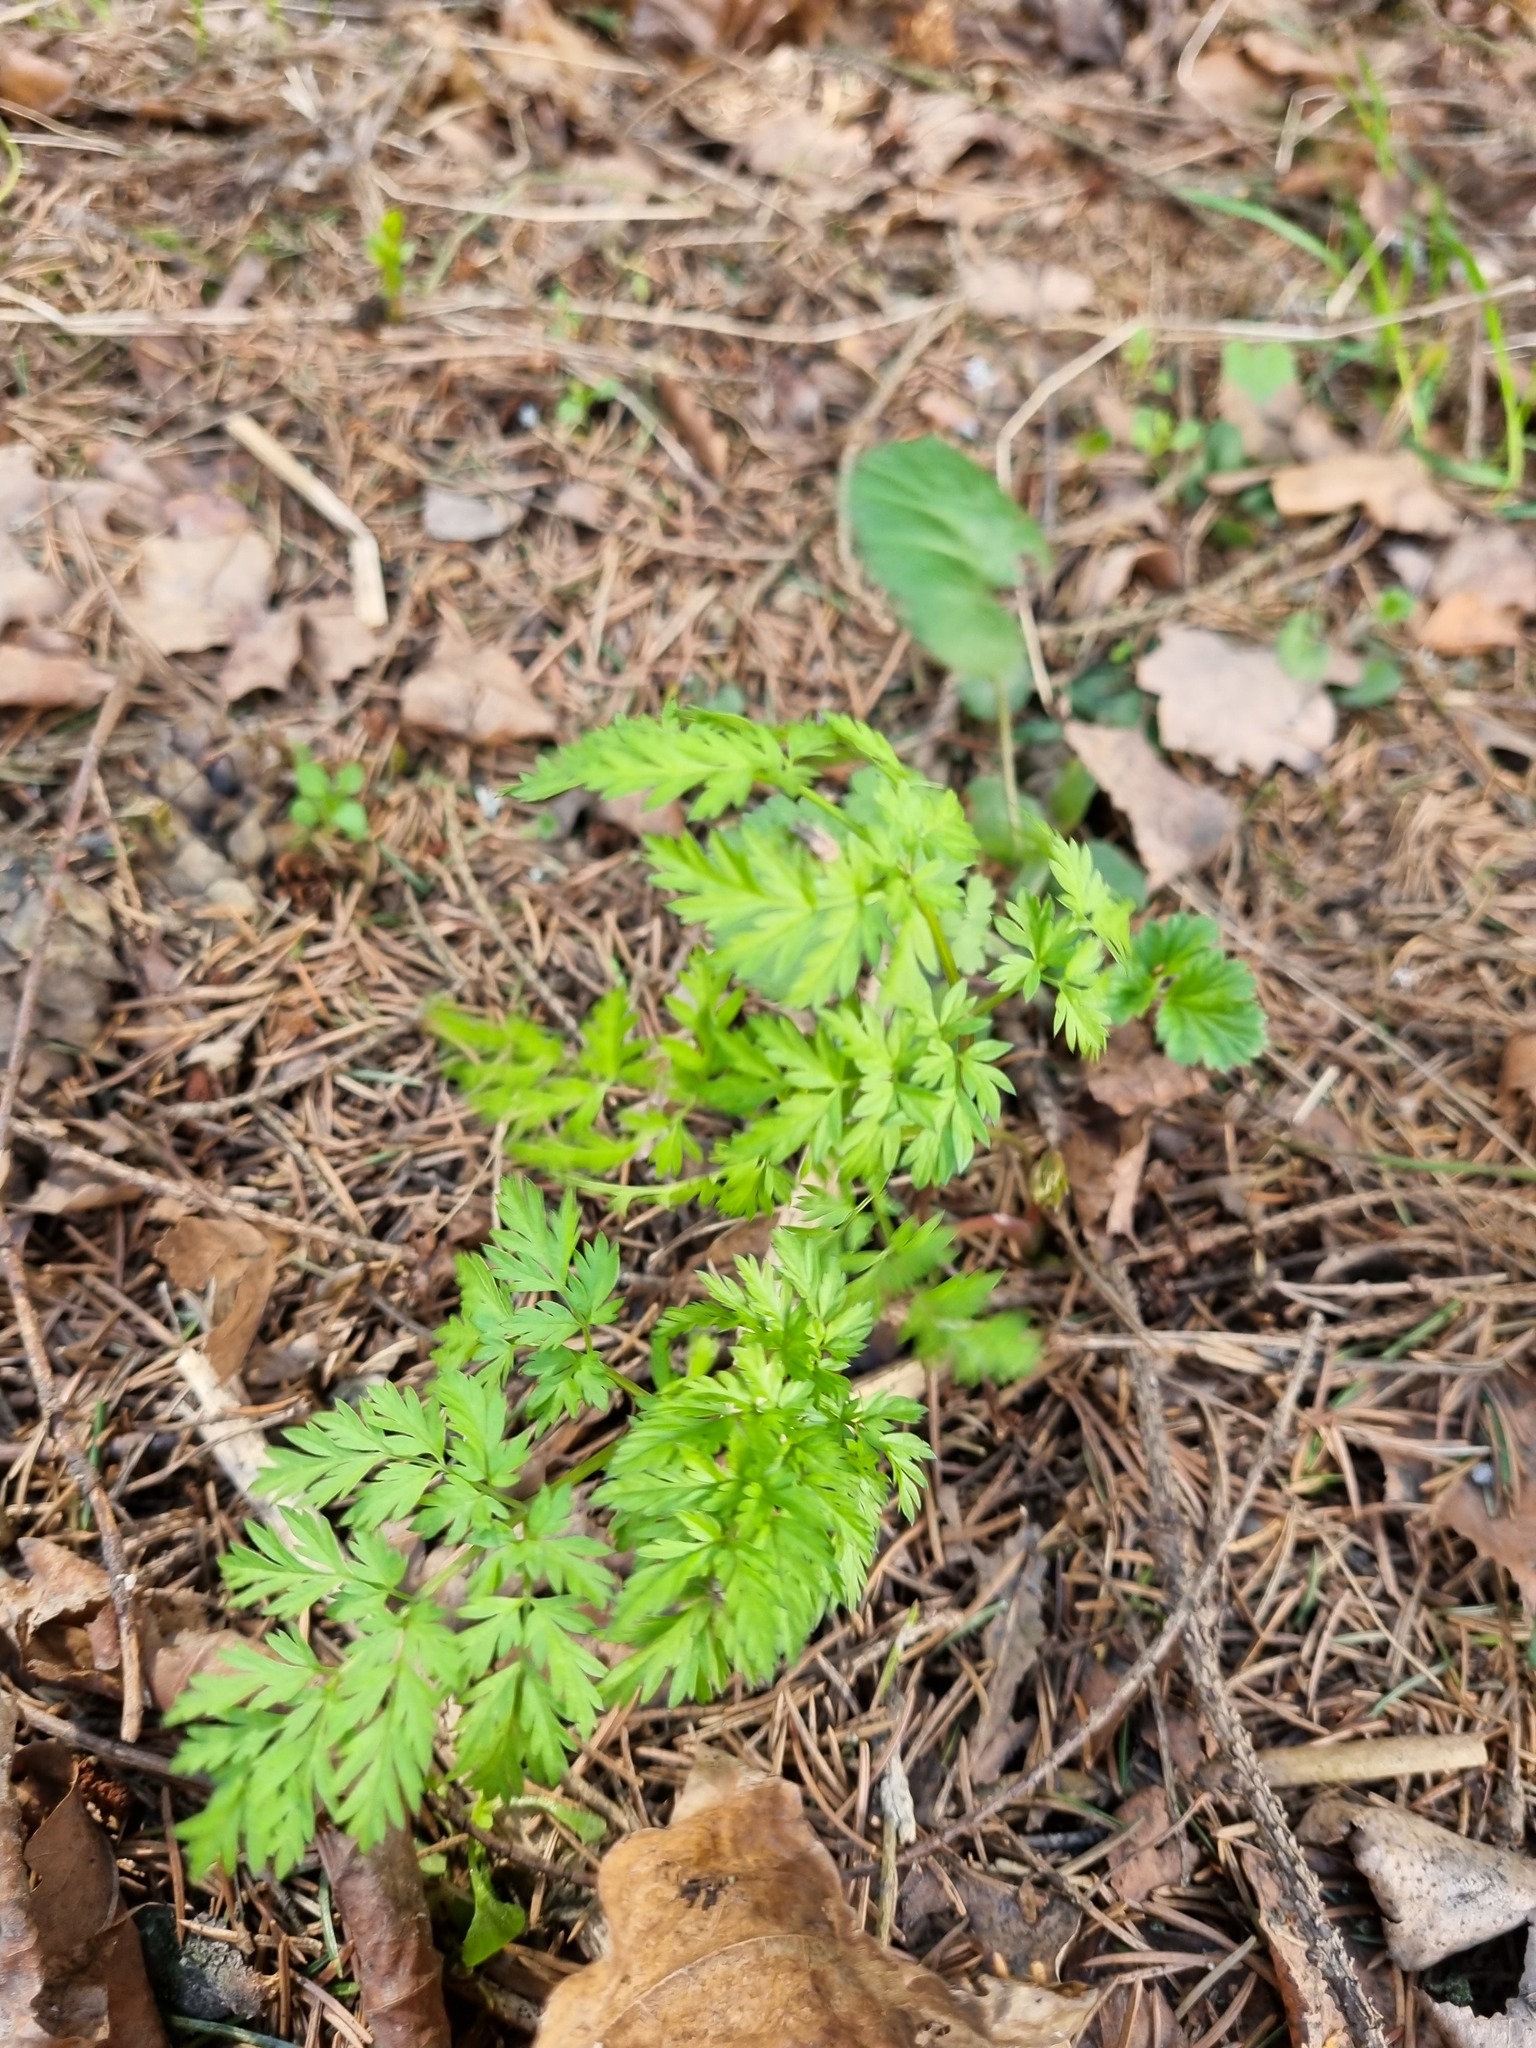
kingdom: Plantae
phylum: Tracheophyta
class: Magnoliopsida
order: Apiales
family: Apiaceae
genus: Anthriscus
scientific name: Anthriscus sylvestris
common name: Cow parsley
